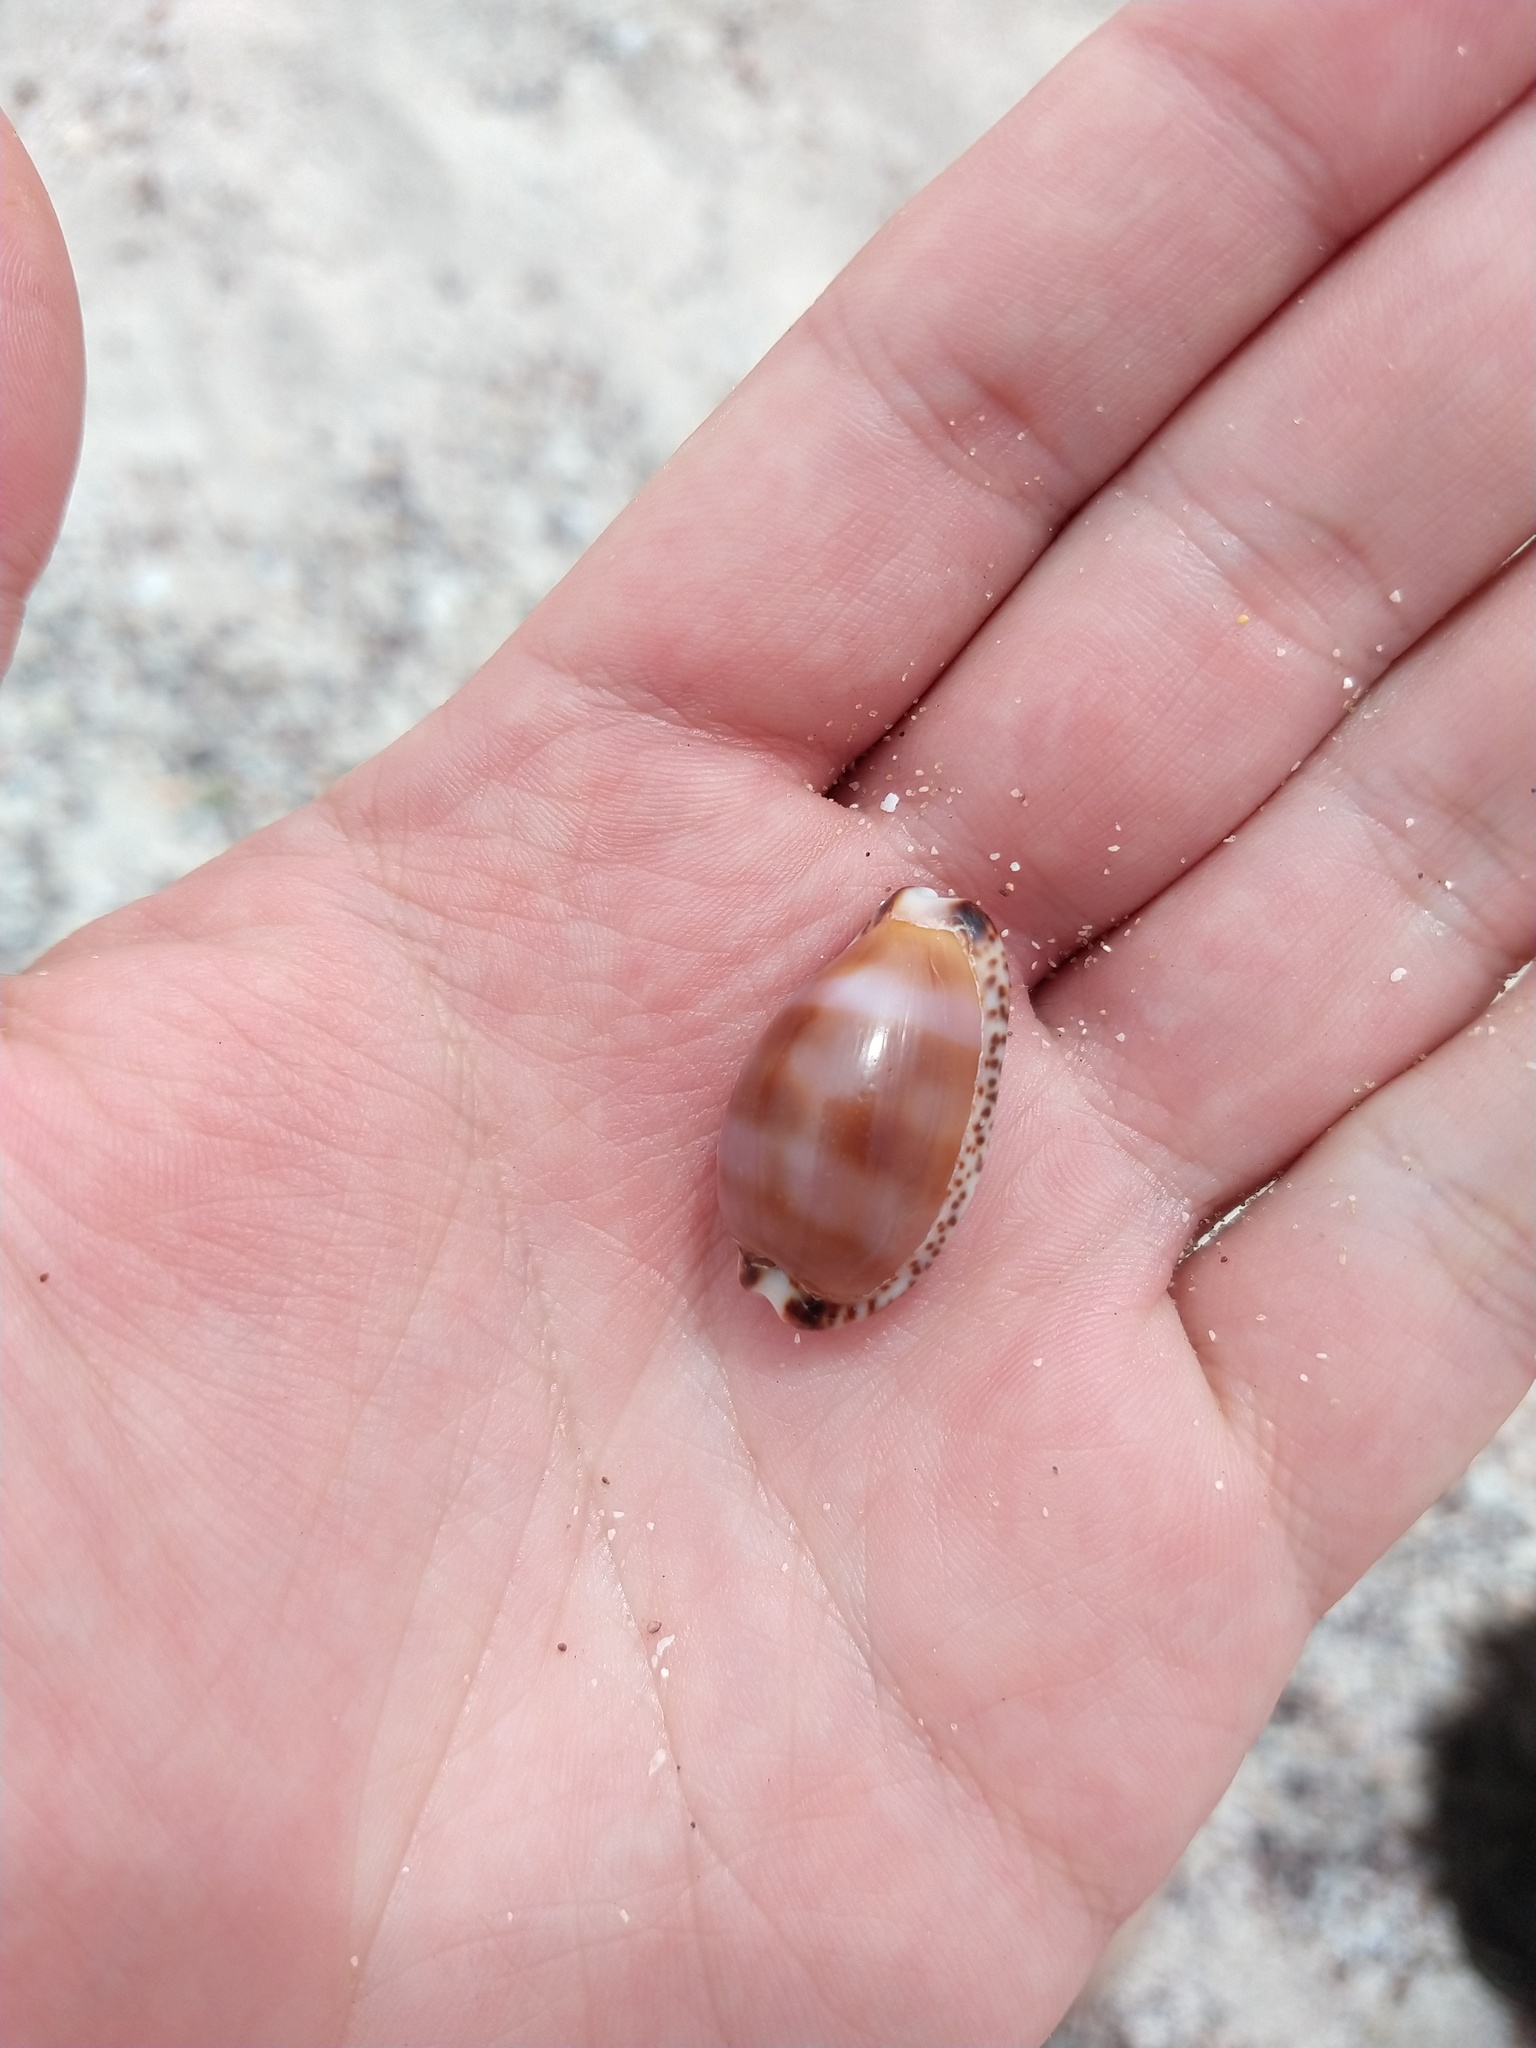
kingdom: Animalia
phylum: Mollusca
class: Gastropoda
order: Littorinimorpha
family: Cypraeidae
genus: Pseudozonaria
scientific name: Pseudozonaria nigropunctata
